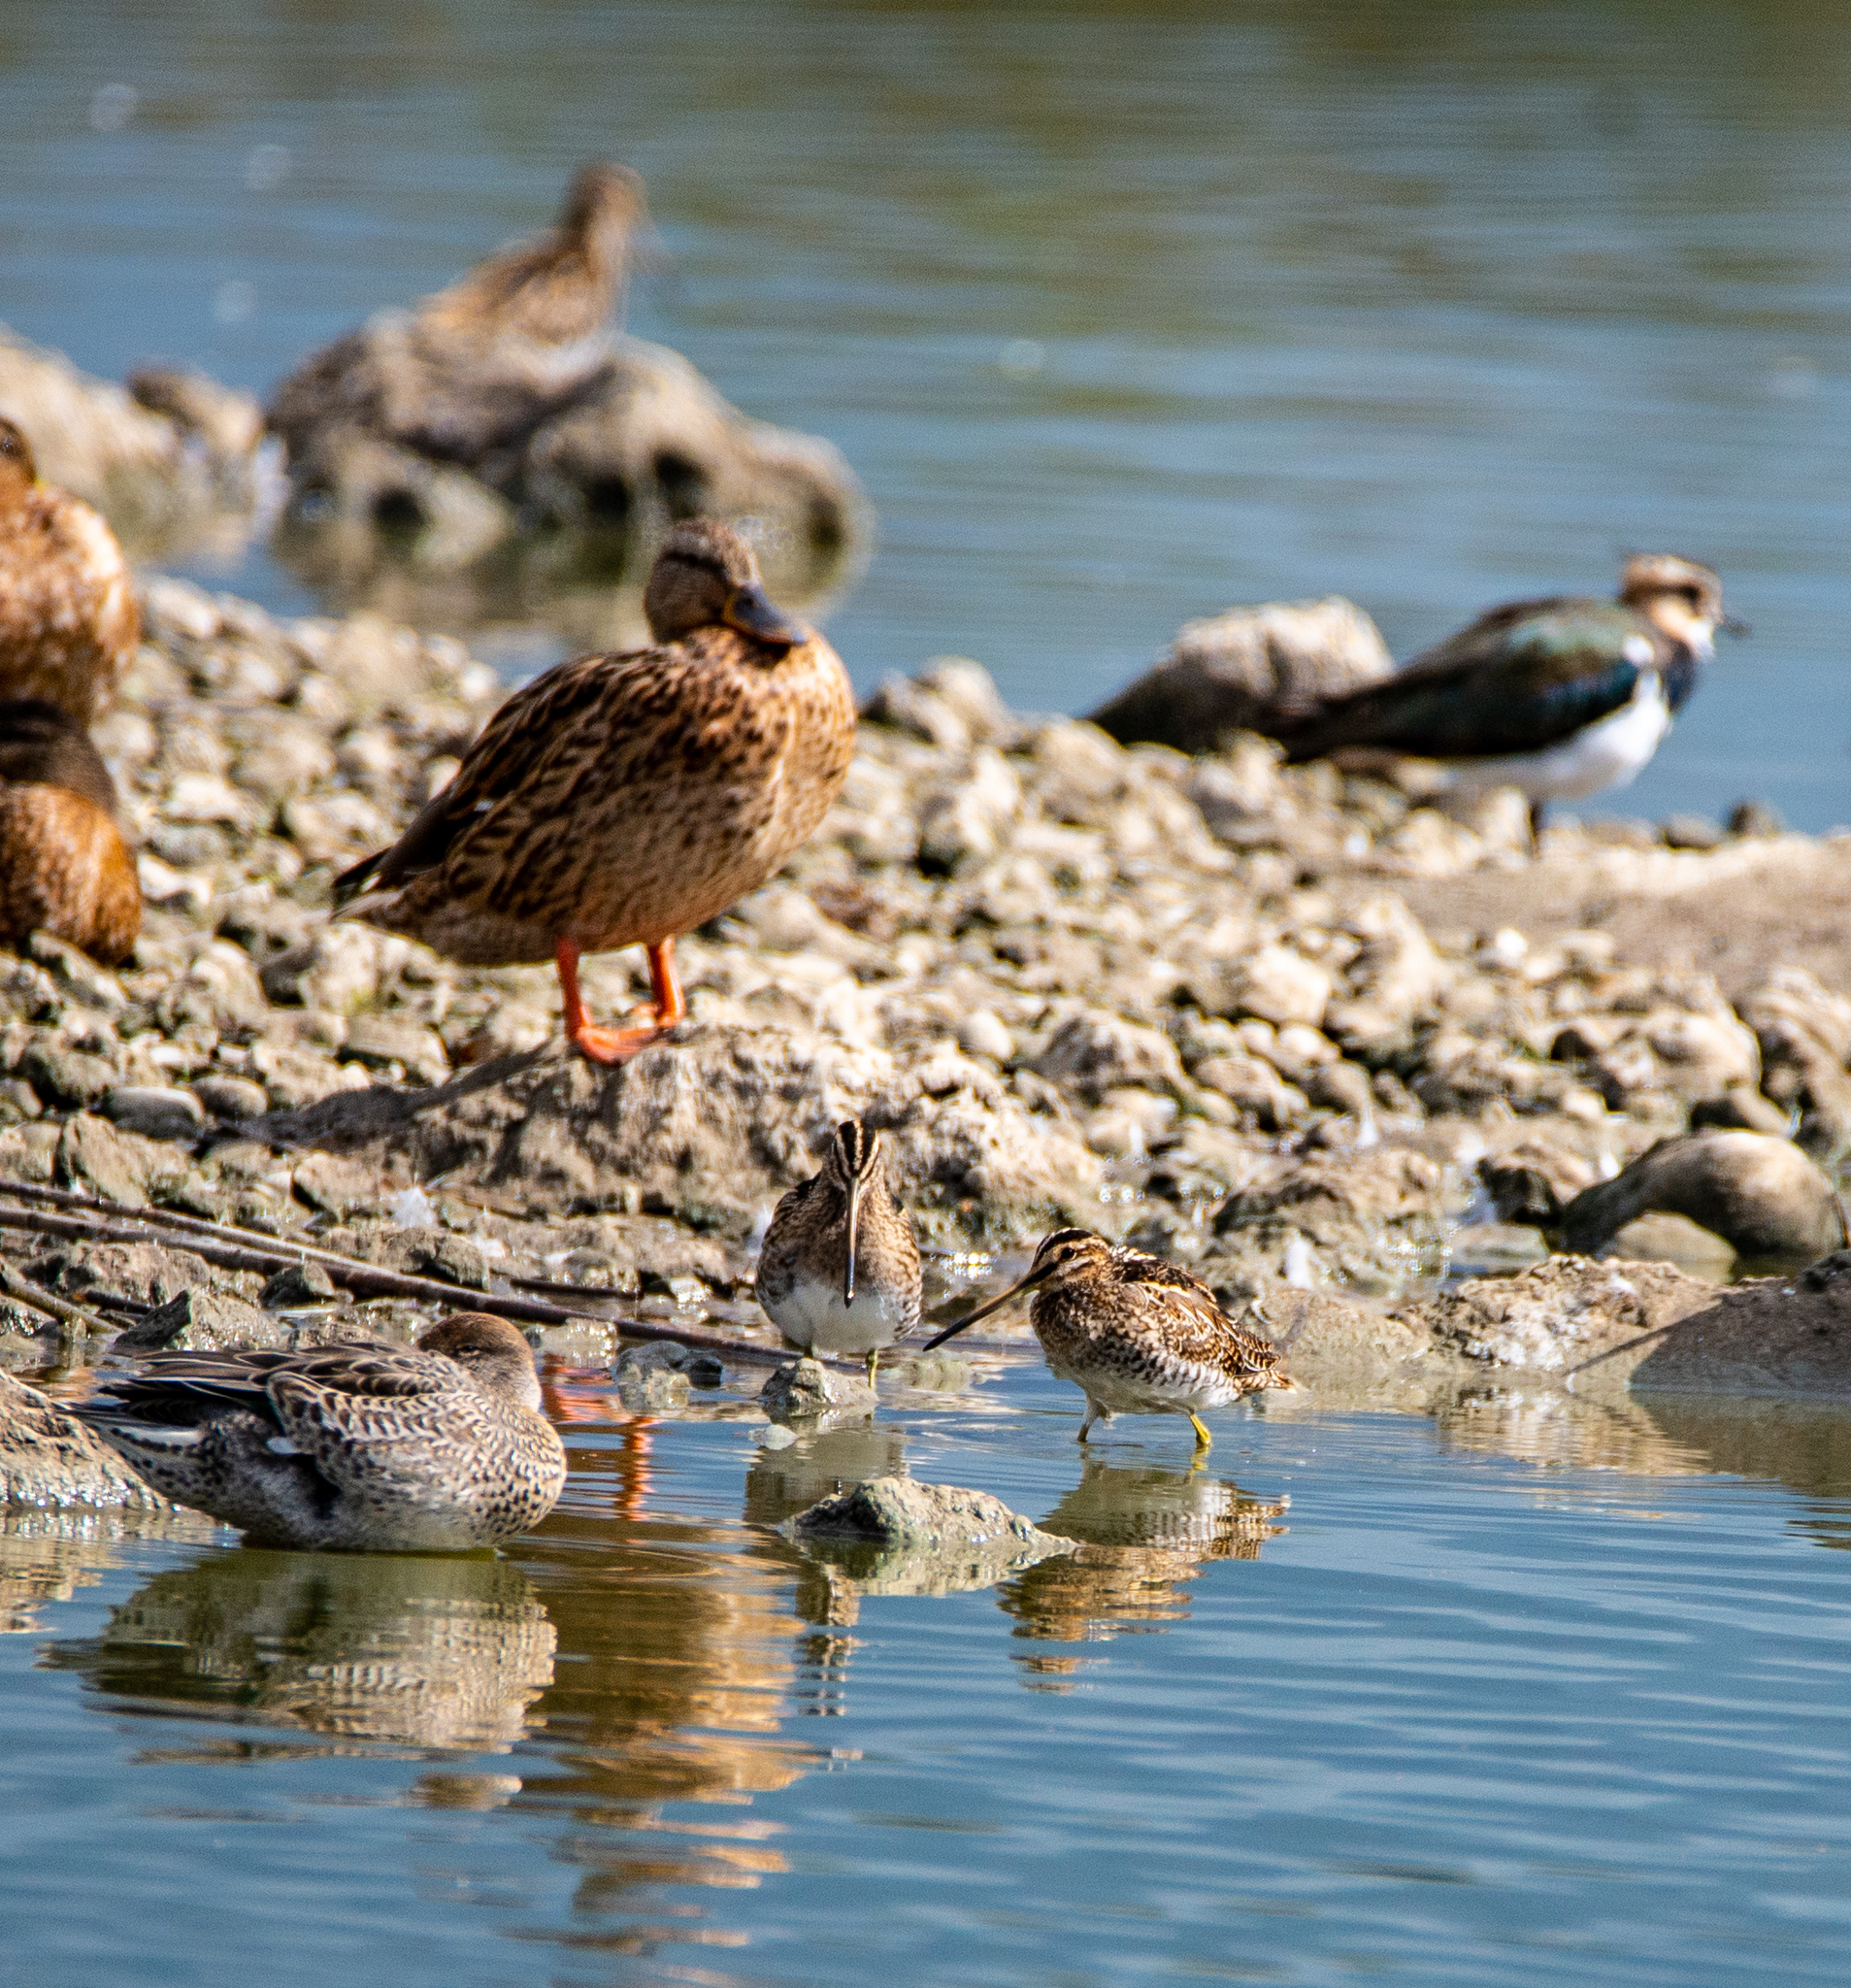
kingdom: Animalia
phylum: Chordata
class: Aves
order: Charadriiformes
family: Scolopacidae
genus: Gallinago
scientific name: Gallinago gallinago
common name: Common snipe
